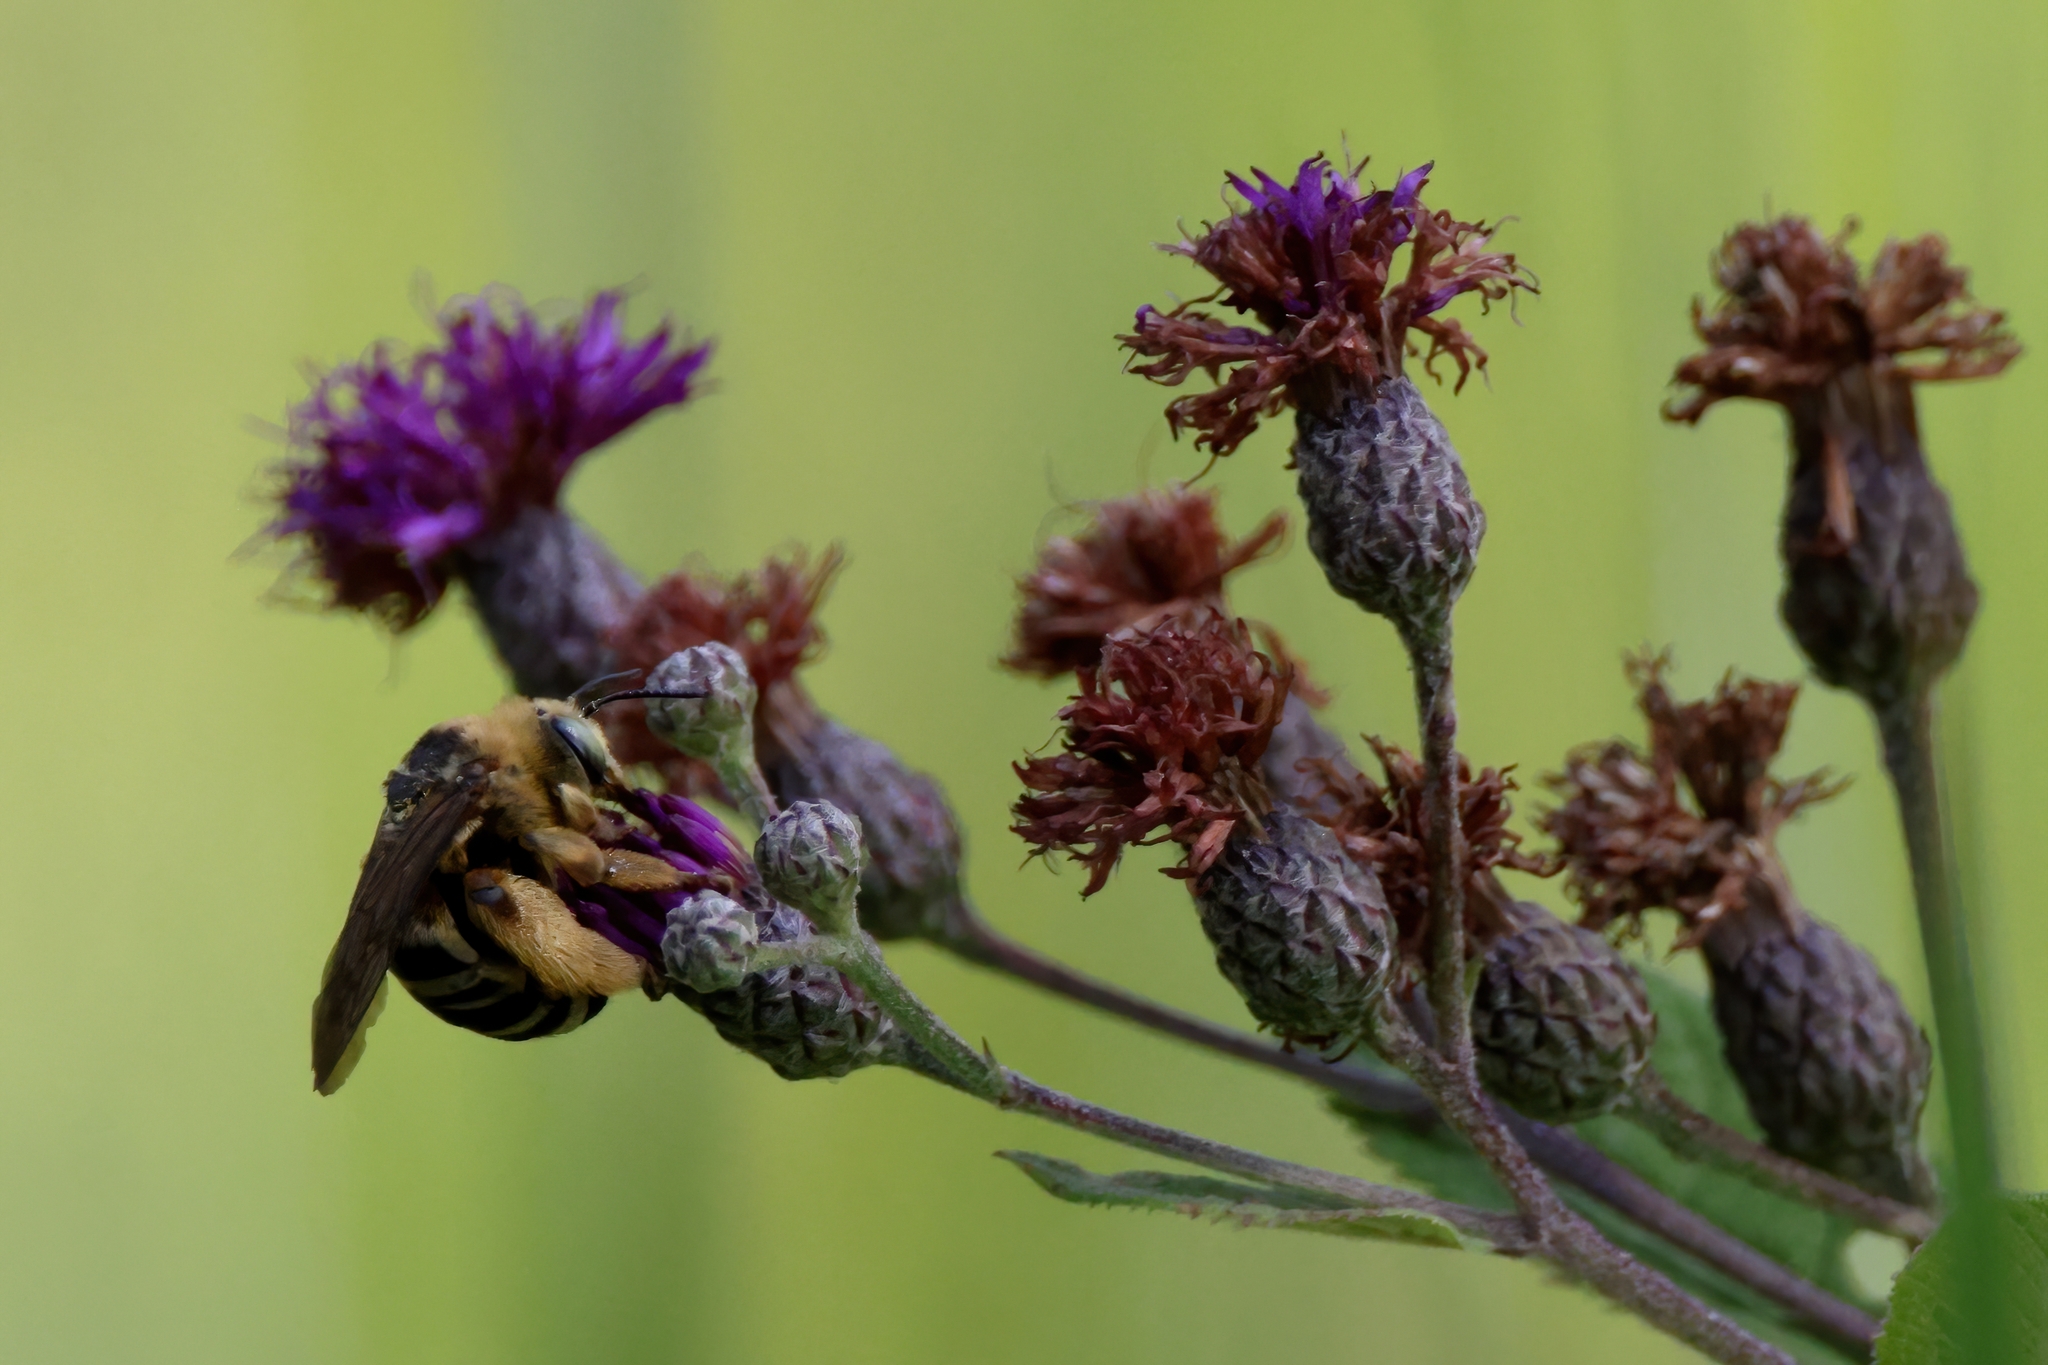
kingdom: Animalia
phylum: Arthropoda
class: Insecta
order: Hymenoptera
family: Apidae
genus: Svastra
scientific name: Svastra aegis
